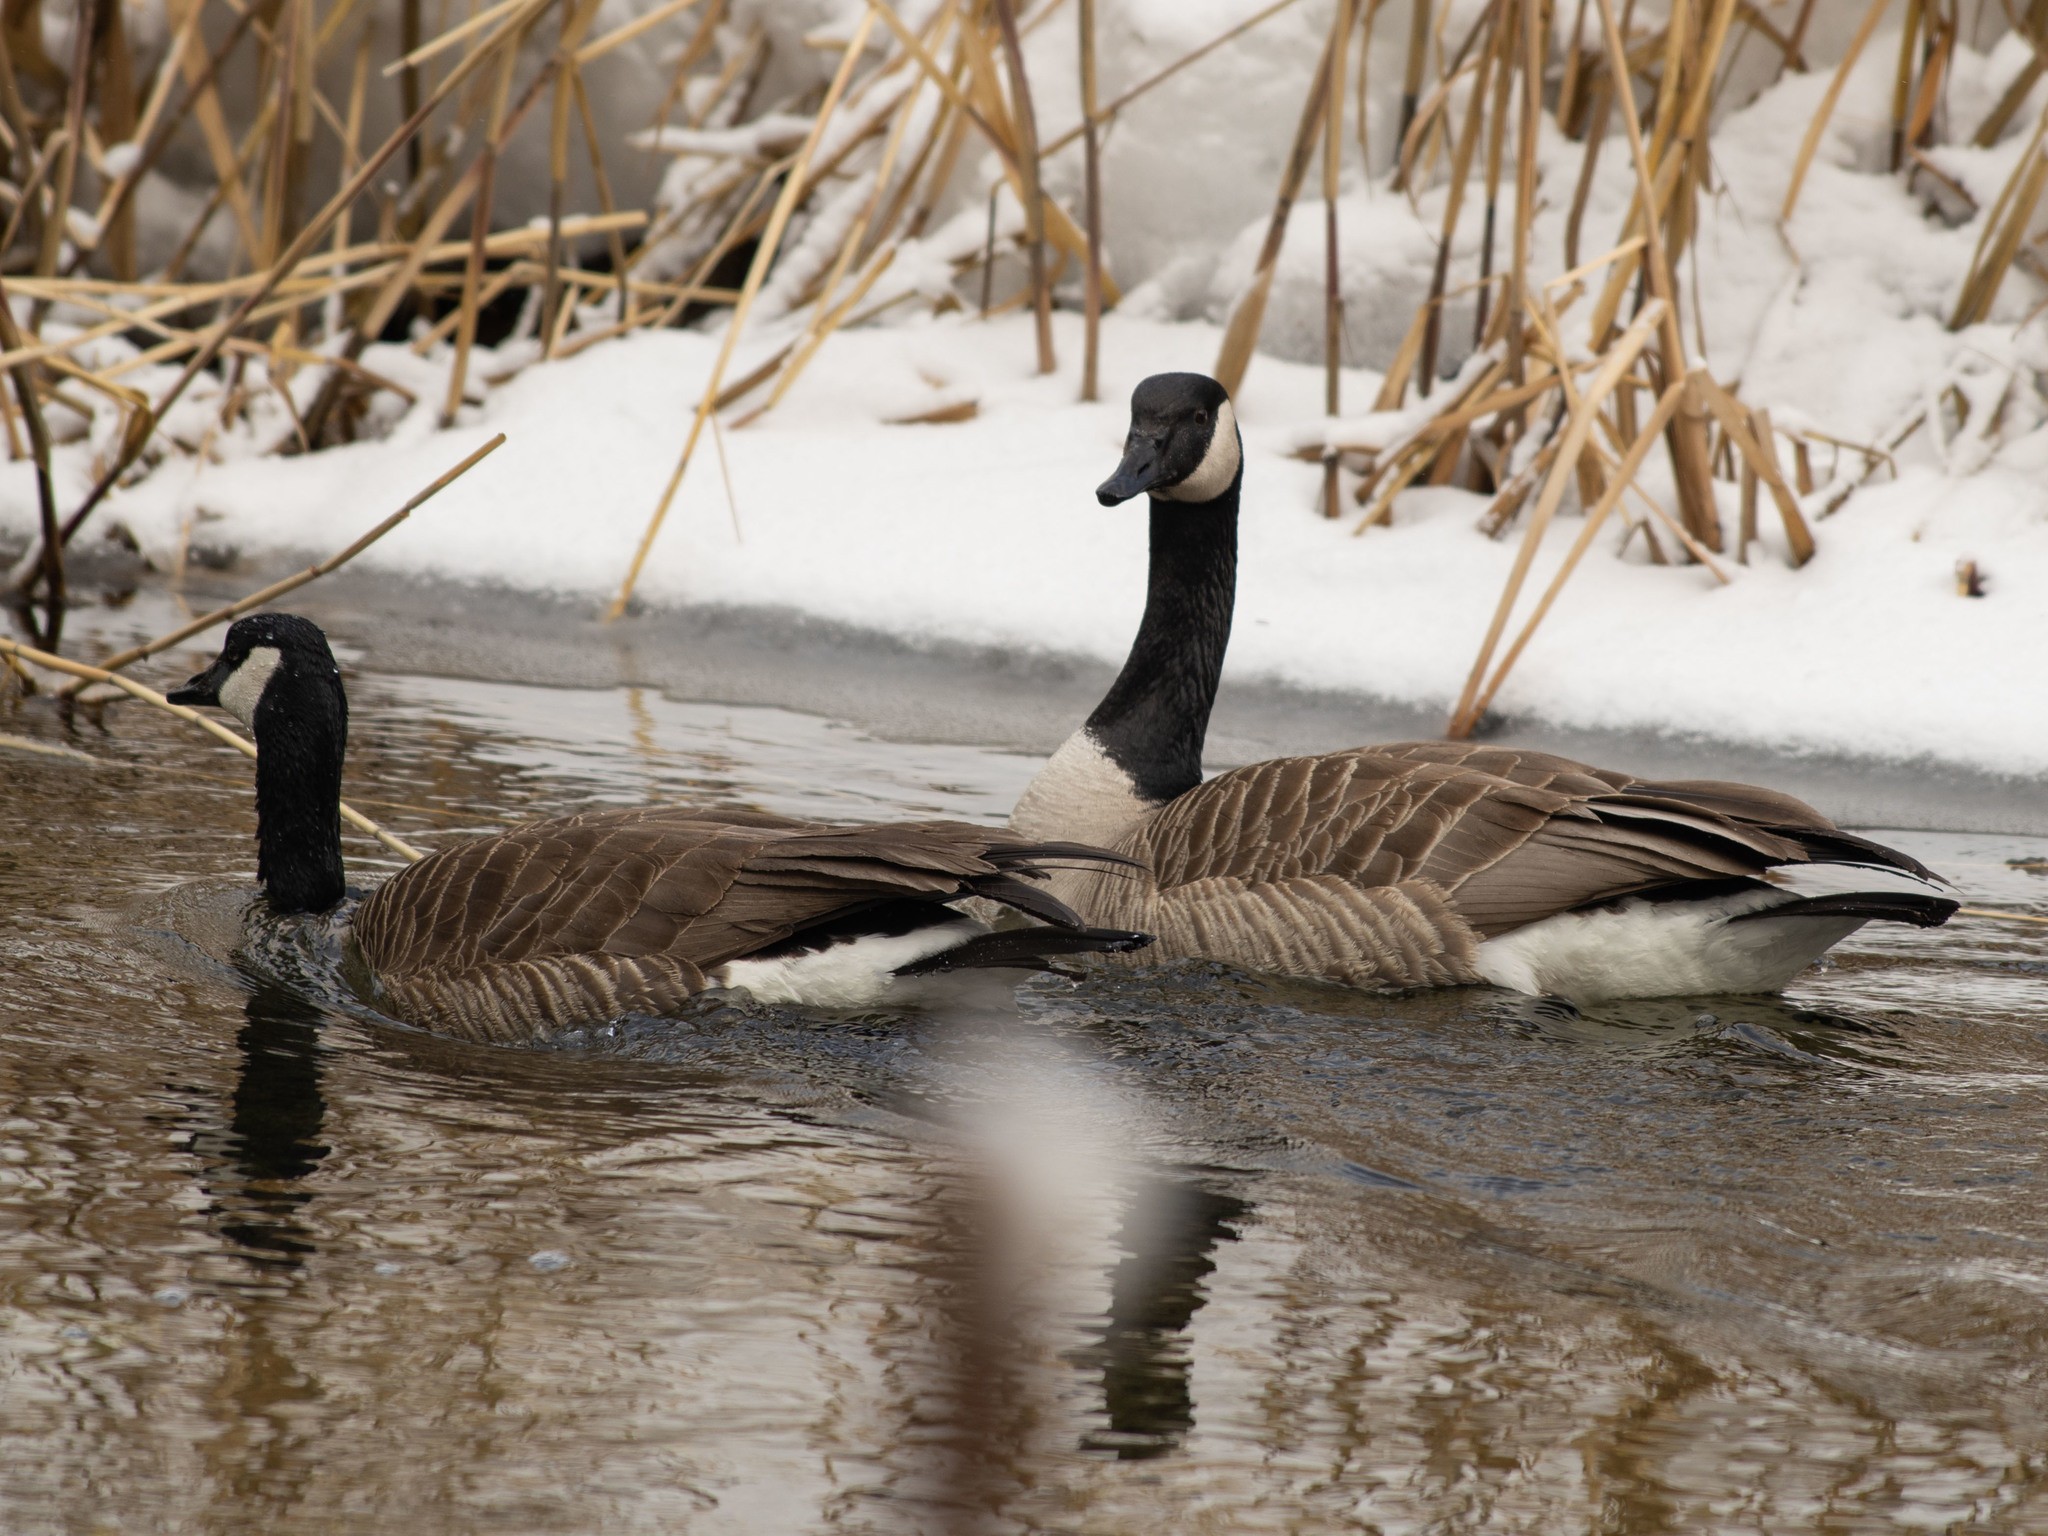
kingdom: Animalia
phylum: Chordata
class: Aves
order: Anseriformes
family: Anatidae
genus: Branta
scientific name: Branta canadensis
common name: Canada goose
